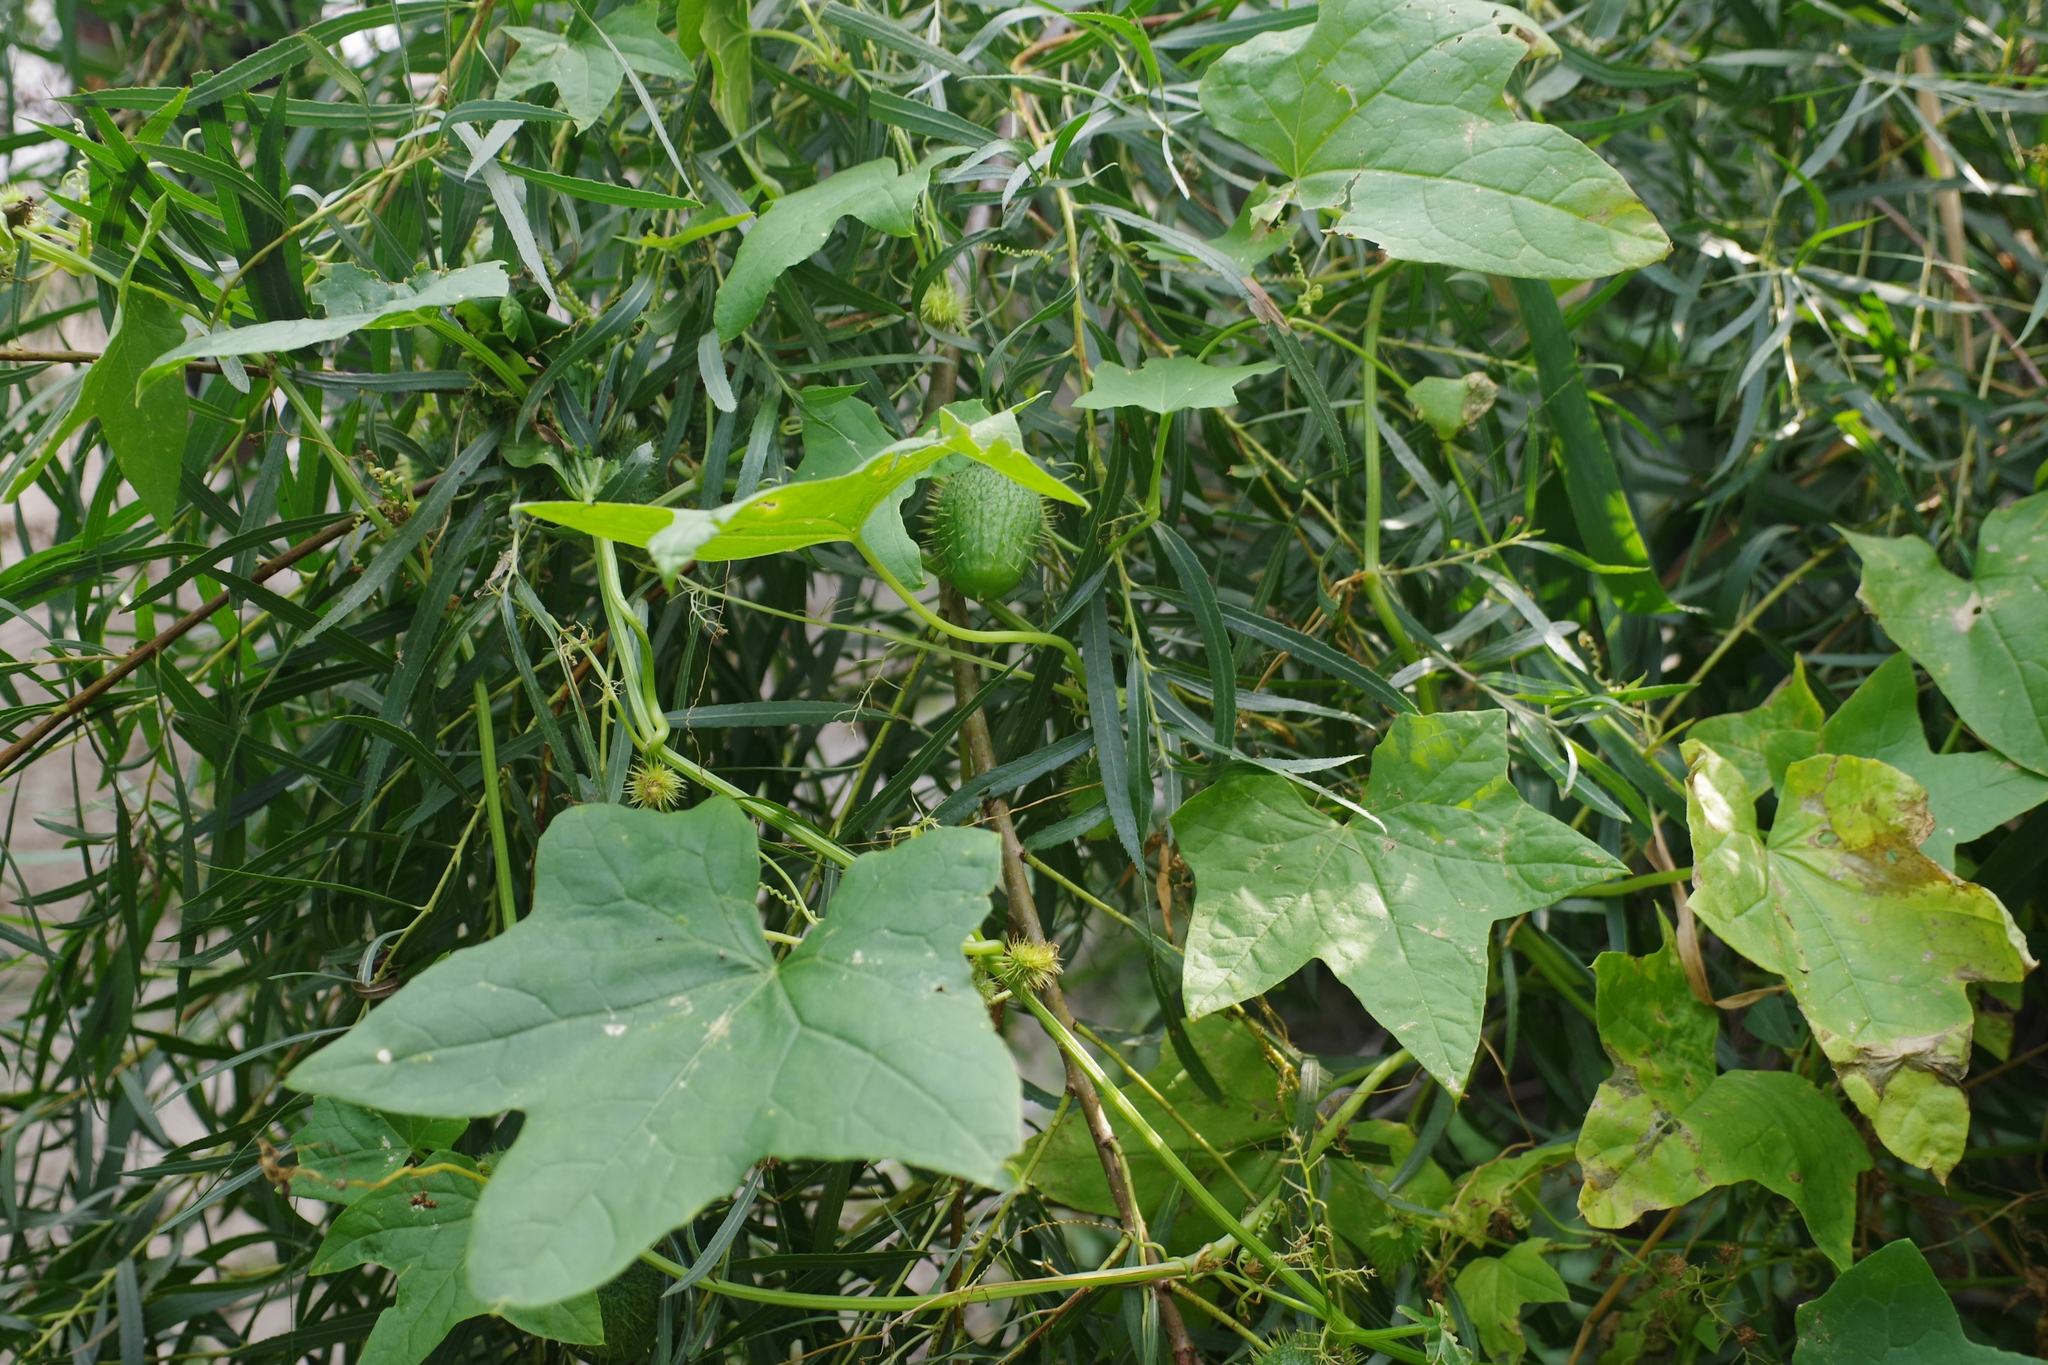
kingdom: Plantae
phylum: Tracheophyta
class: Magnoliopsida
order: Cucurbitales
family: Cucurbitaceae
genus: Echinocystis
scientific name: Echinocystis lobata
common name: Wild cucumber
